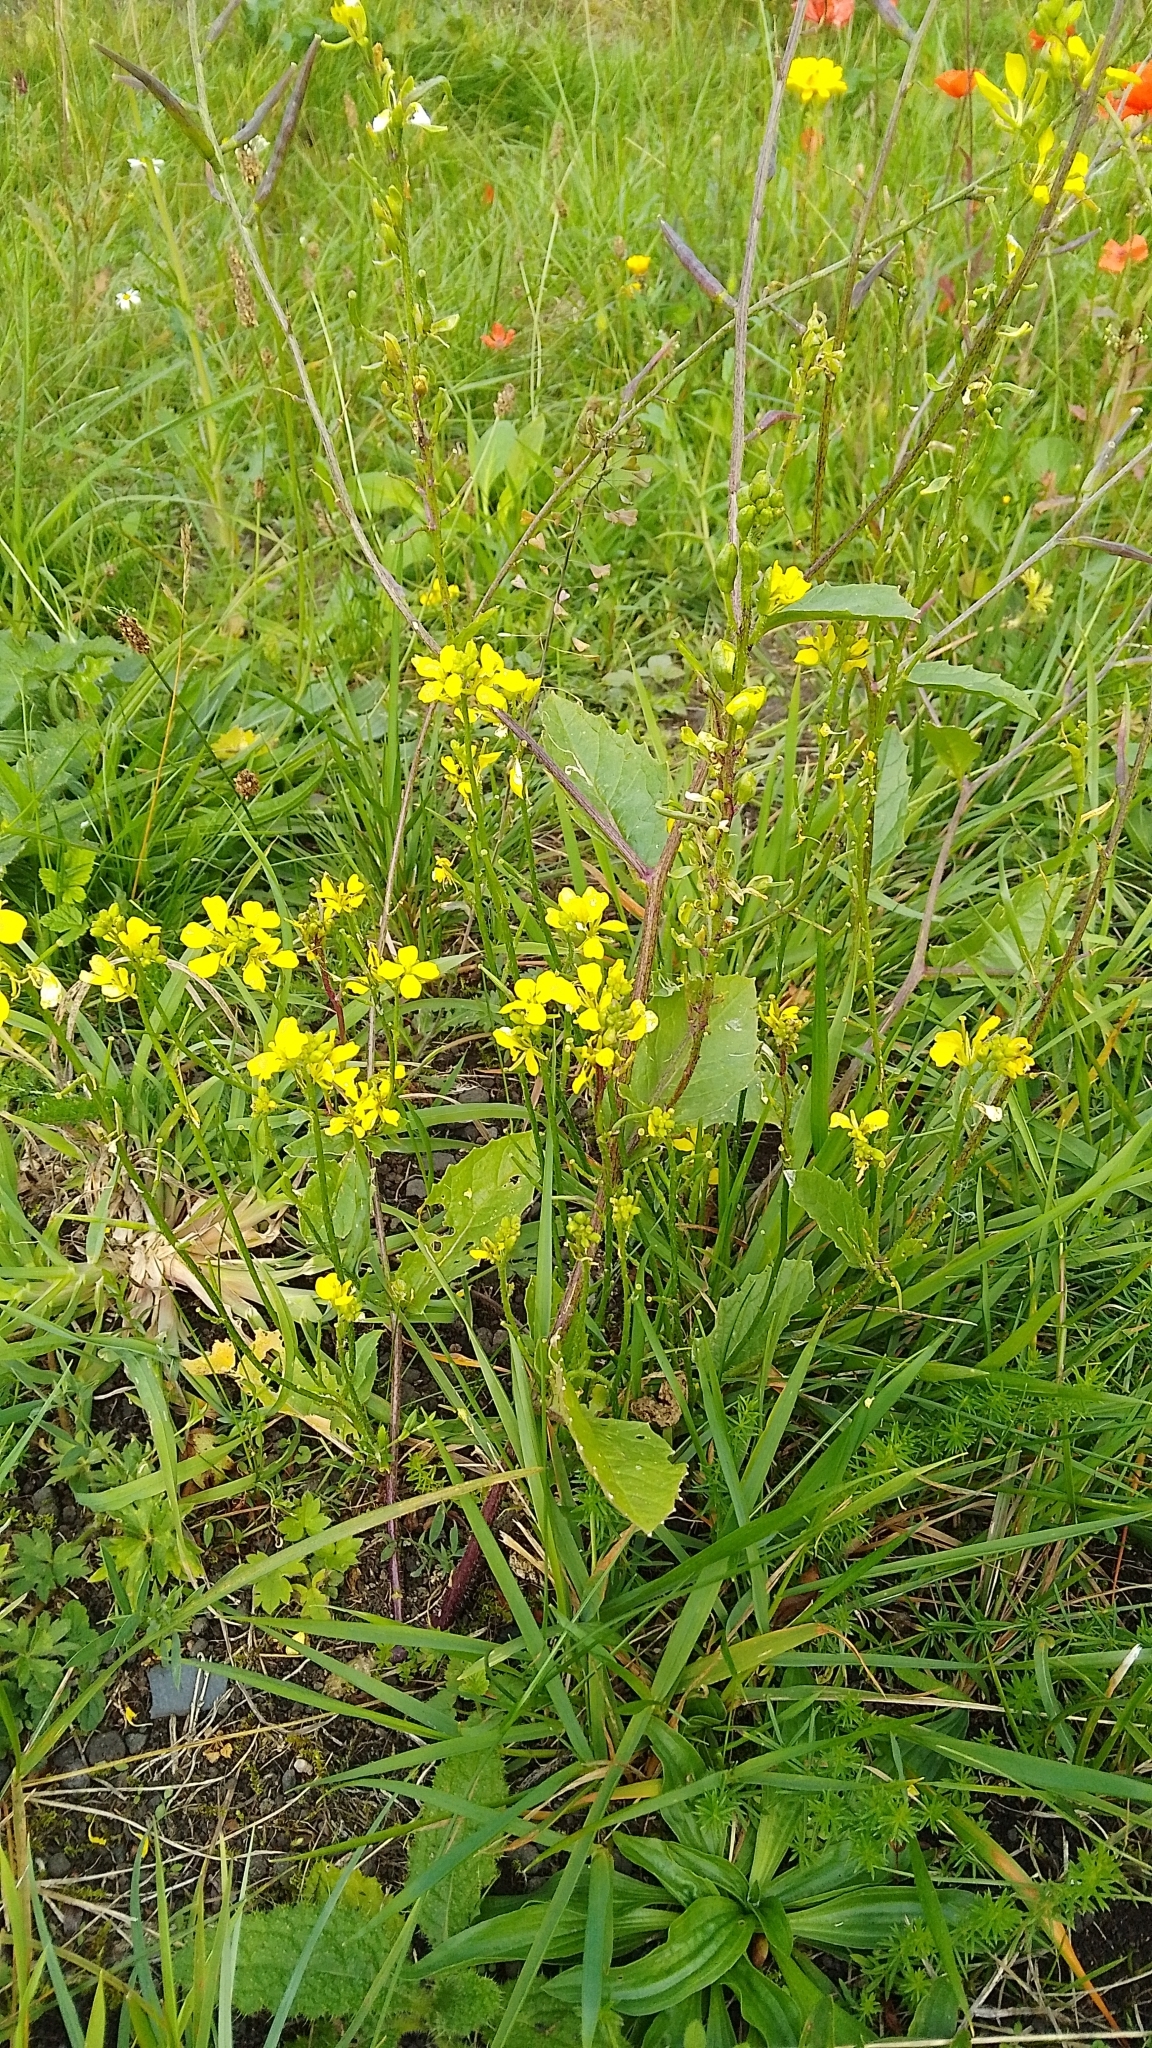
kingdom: Plantae
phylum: Tracheophyta
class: Magnoliopsida
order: Brassicales
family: Brassicaceae
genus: Sinapis
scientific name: Sinapis arvensis
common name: Charlock
